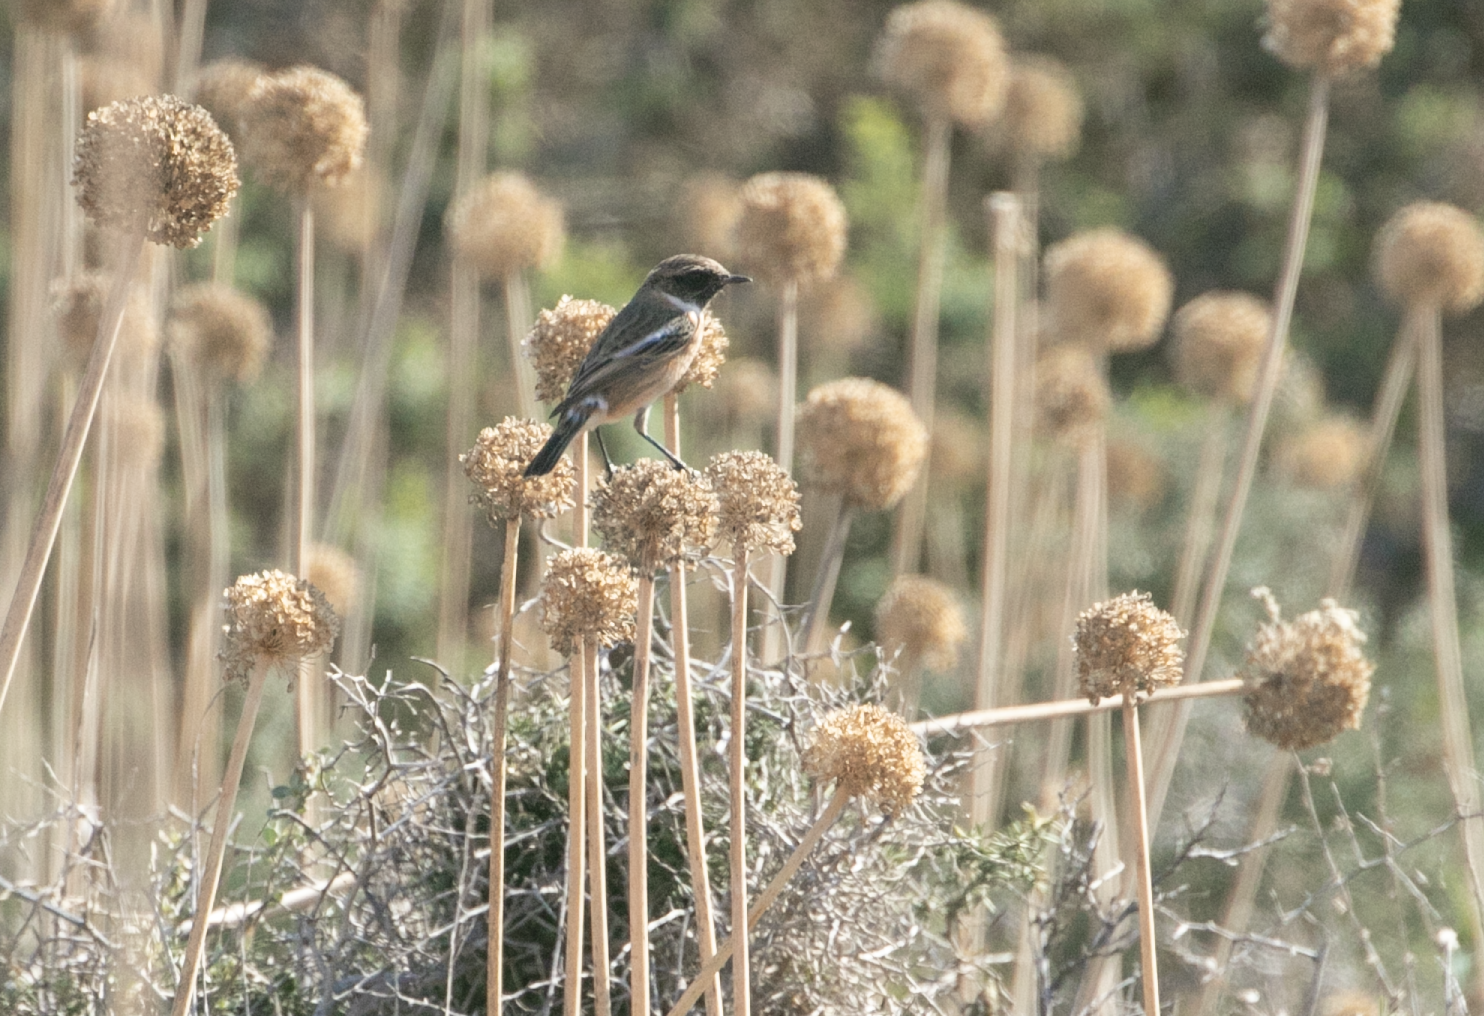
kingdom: Animalia
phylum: Chordata
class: Aves
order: Passeriformes
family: Muscicapidae
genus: Saxicola
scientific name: Saxicola rubicola
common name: European stonechat
